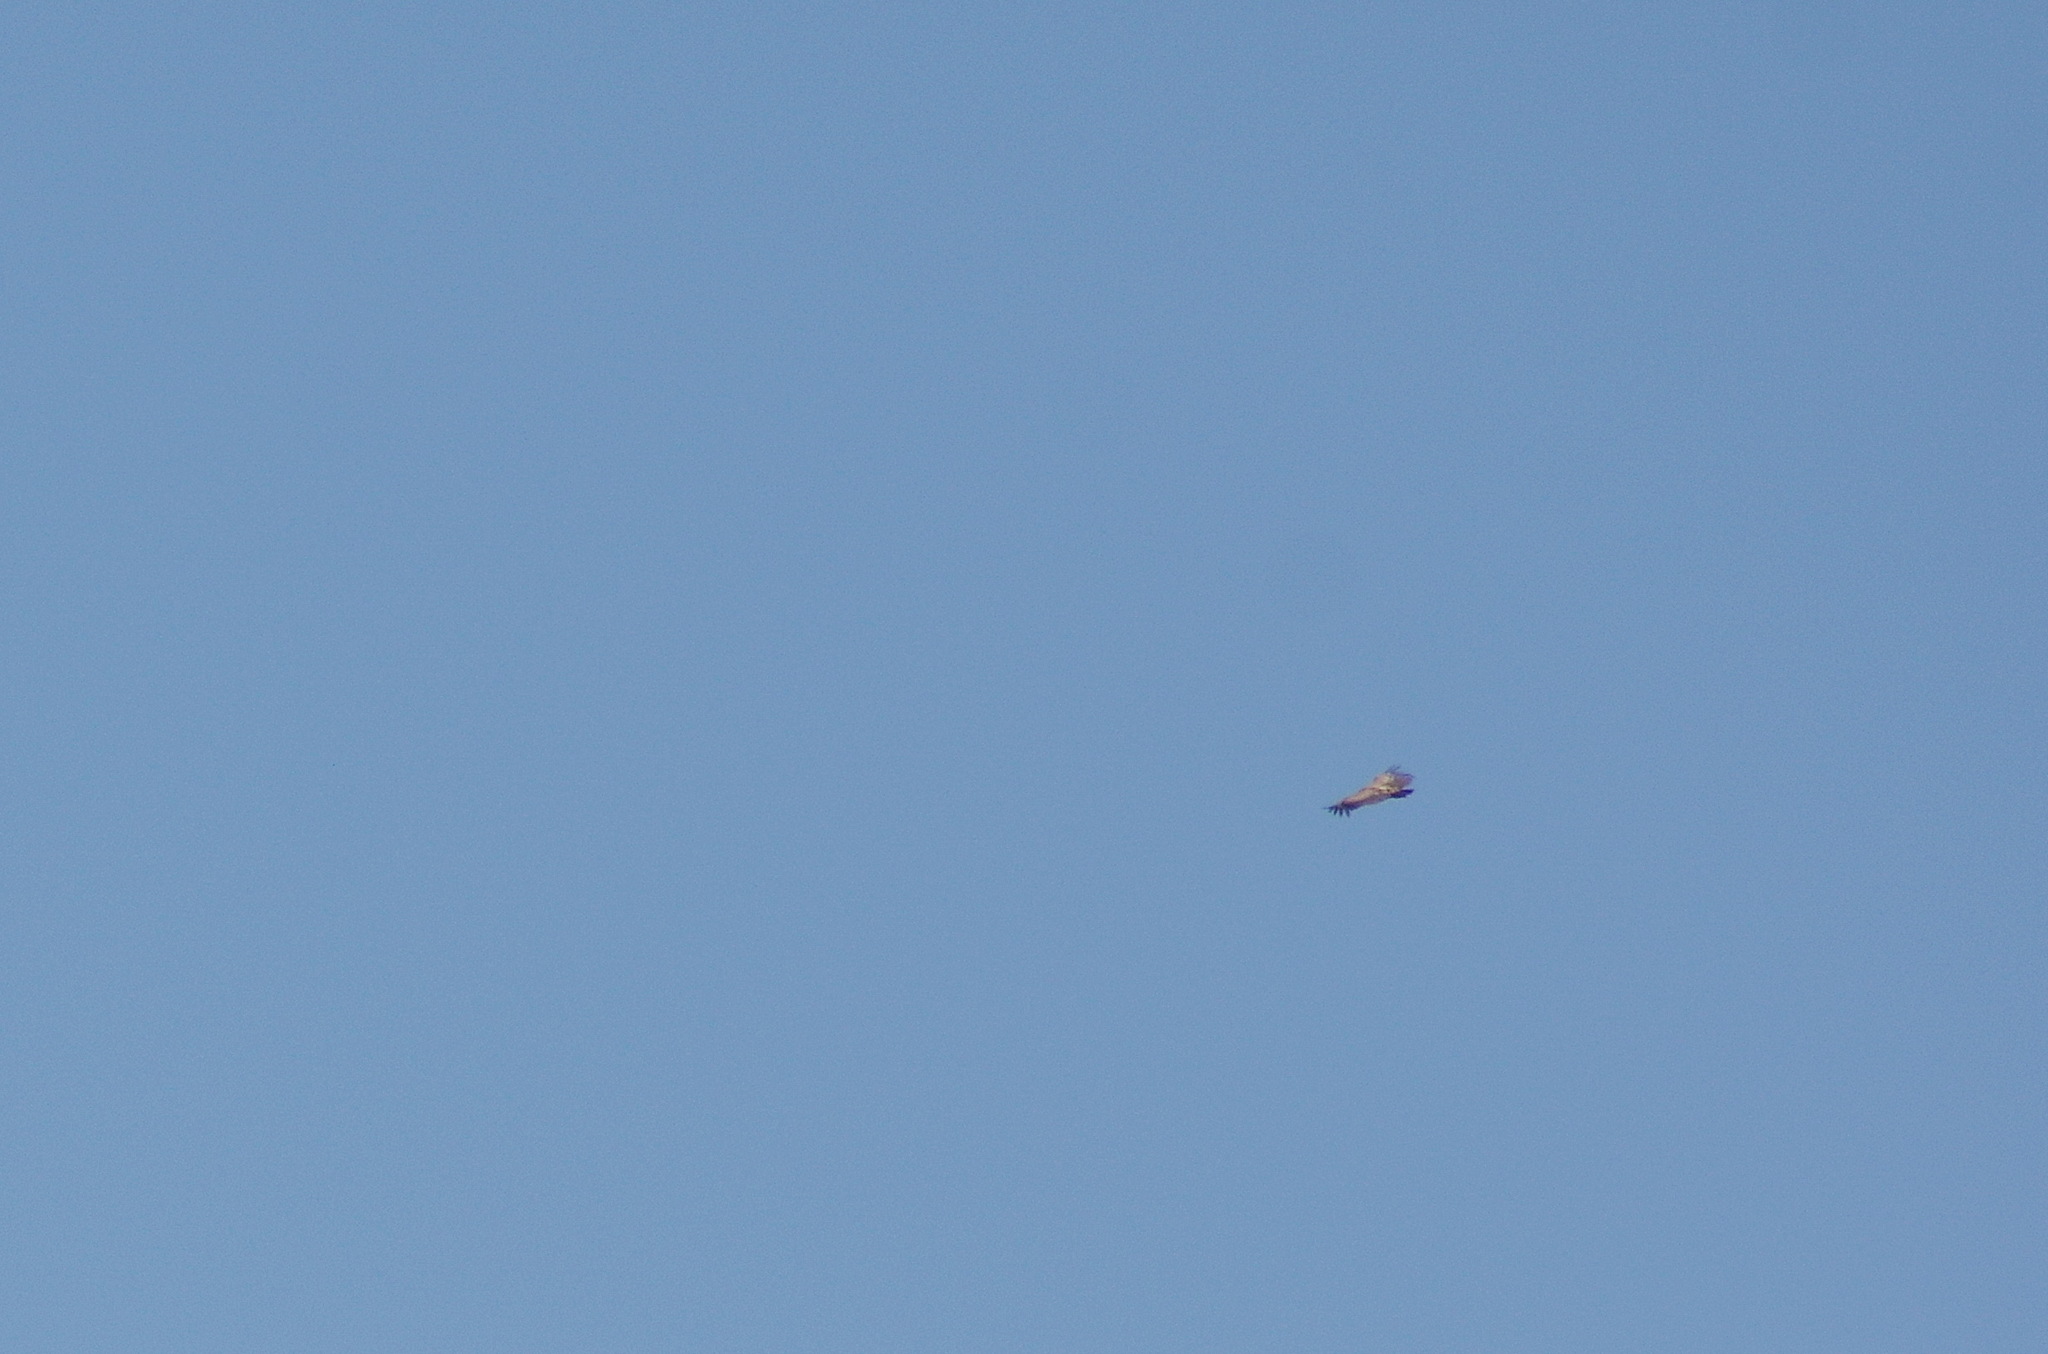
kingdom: Animalia
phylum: Chordata
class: Aves
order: Accipitriformes
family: Accipitridae
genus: Gyps
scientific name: Gyps fulvus
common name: Griffon vulture
